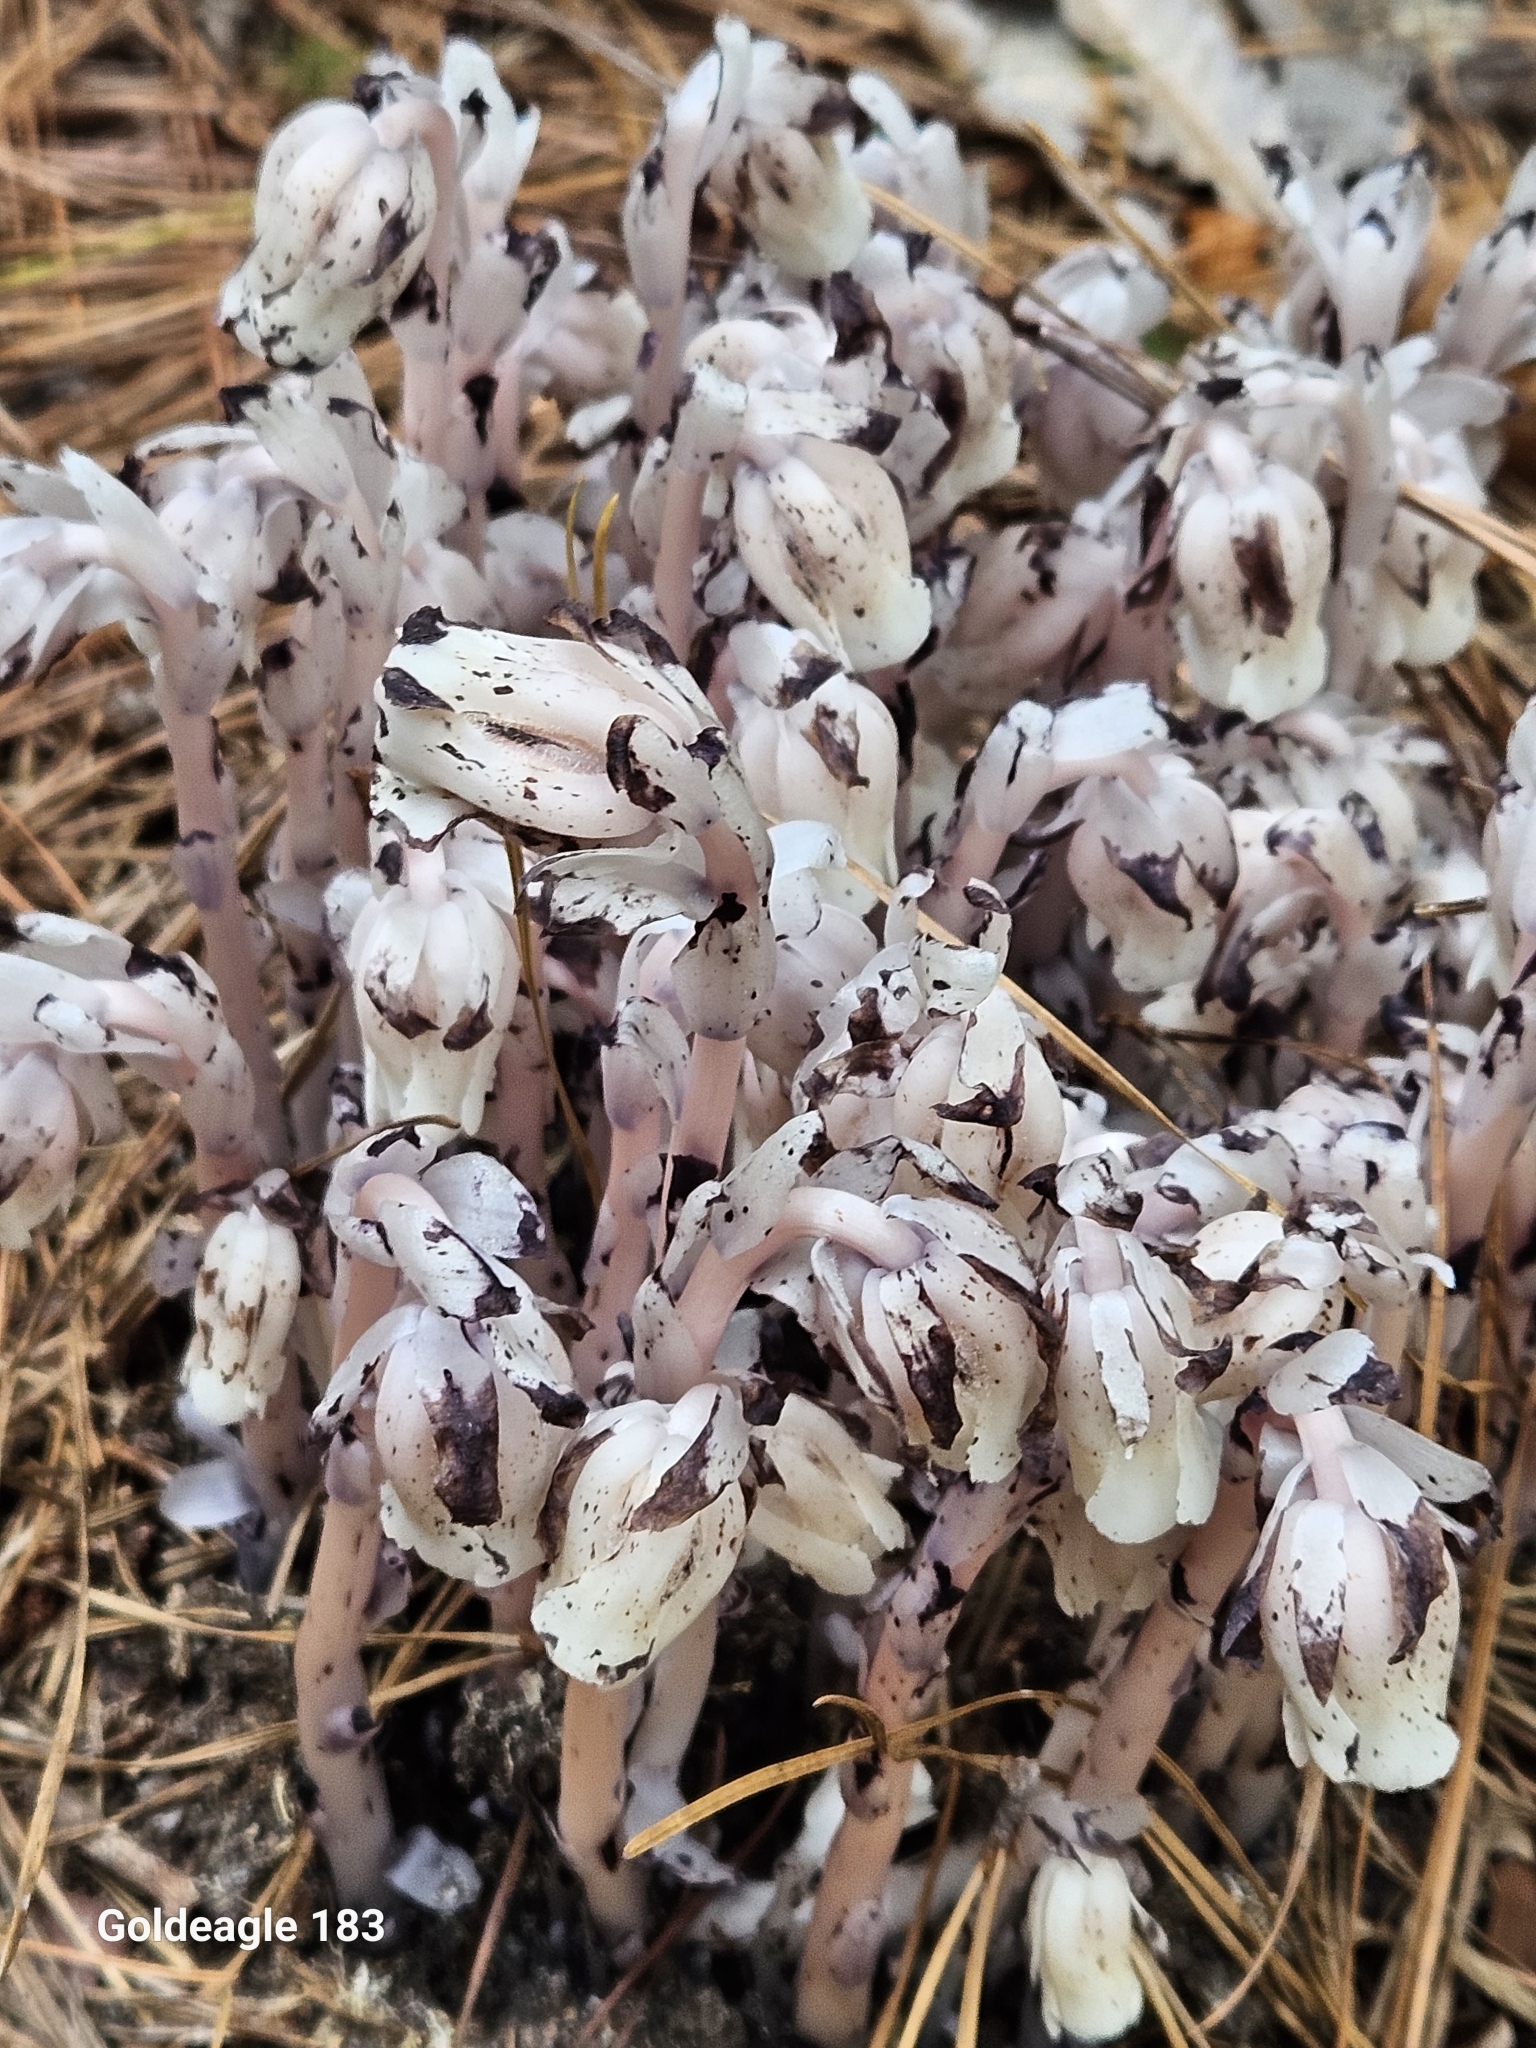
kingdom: Plantae
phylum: Tracheophyta
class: Magnoliopsida
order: Ericales
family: Ericaceae
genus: Monotropa
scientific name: Monotropa uniflora
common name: Convulsion root
